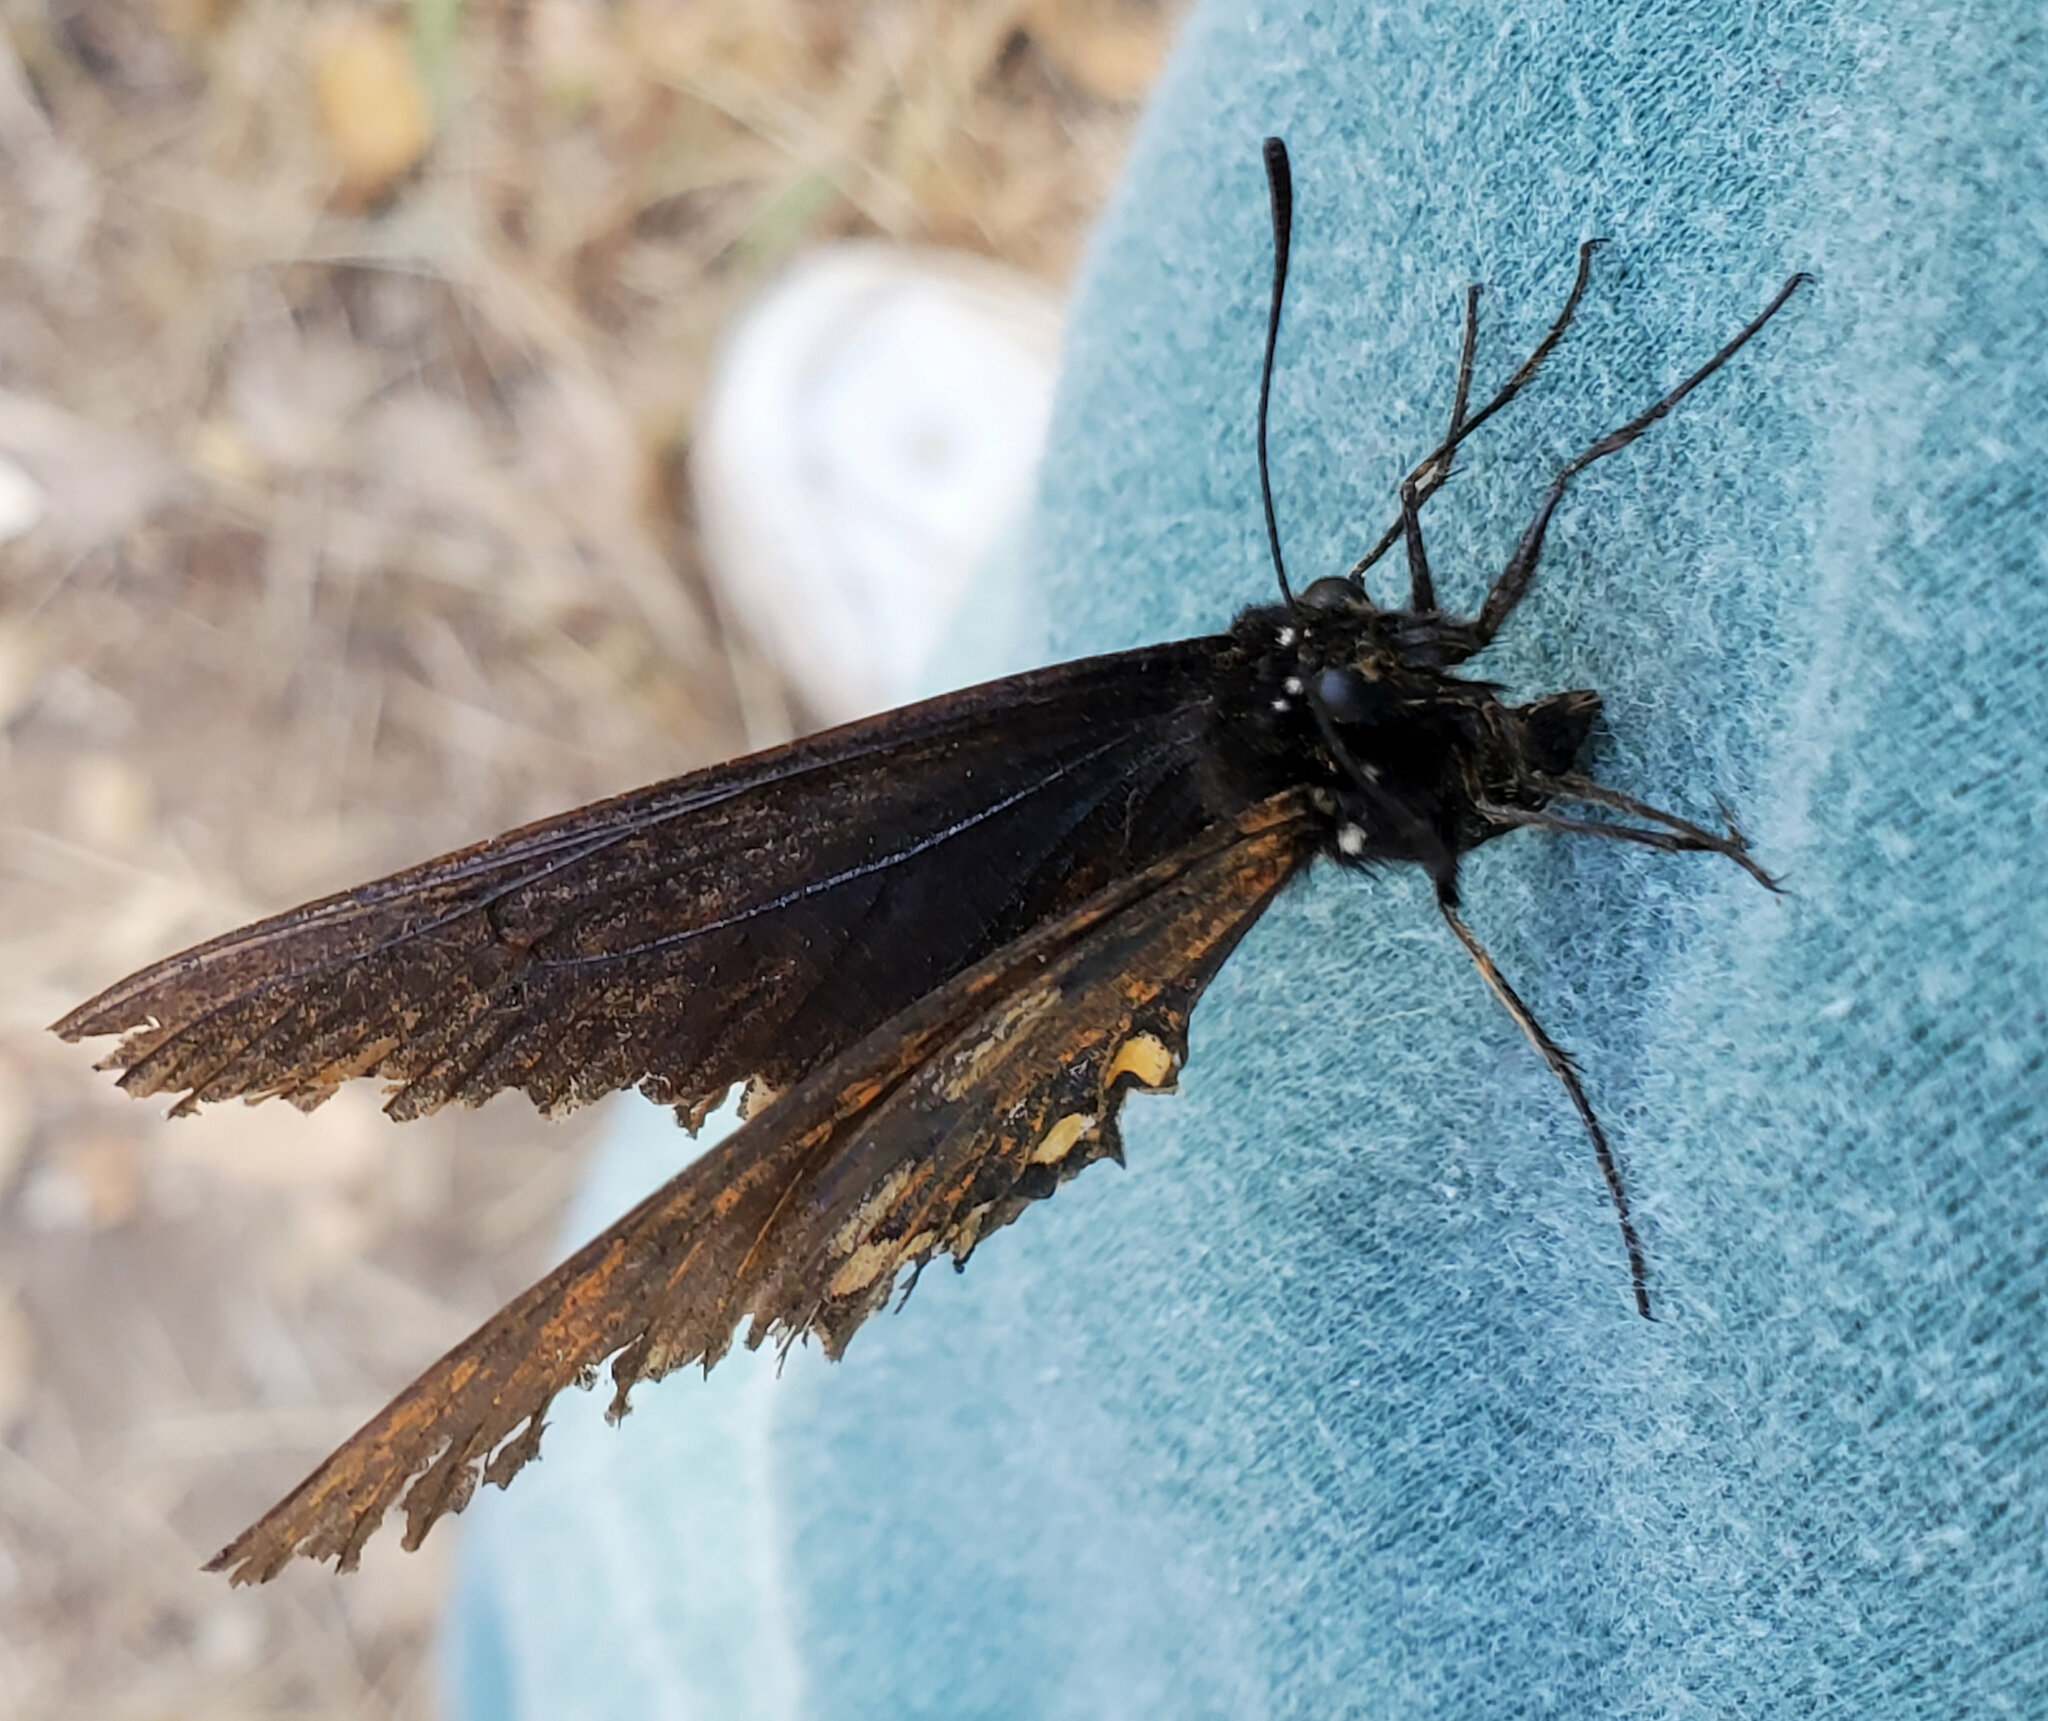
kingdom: Animalia
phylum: Arthropoda
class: Insecta
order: Lepidoptera
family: Papilionidae
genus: Battus
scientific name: Battus philenor
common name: Pipevine swallowtail
